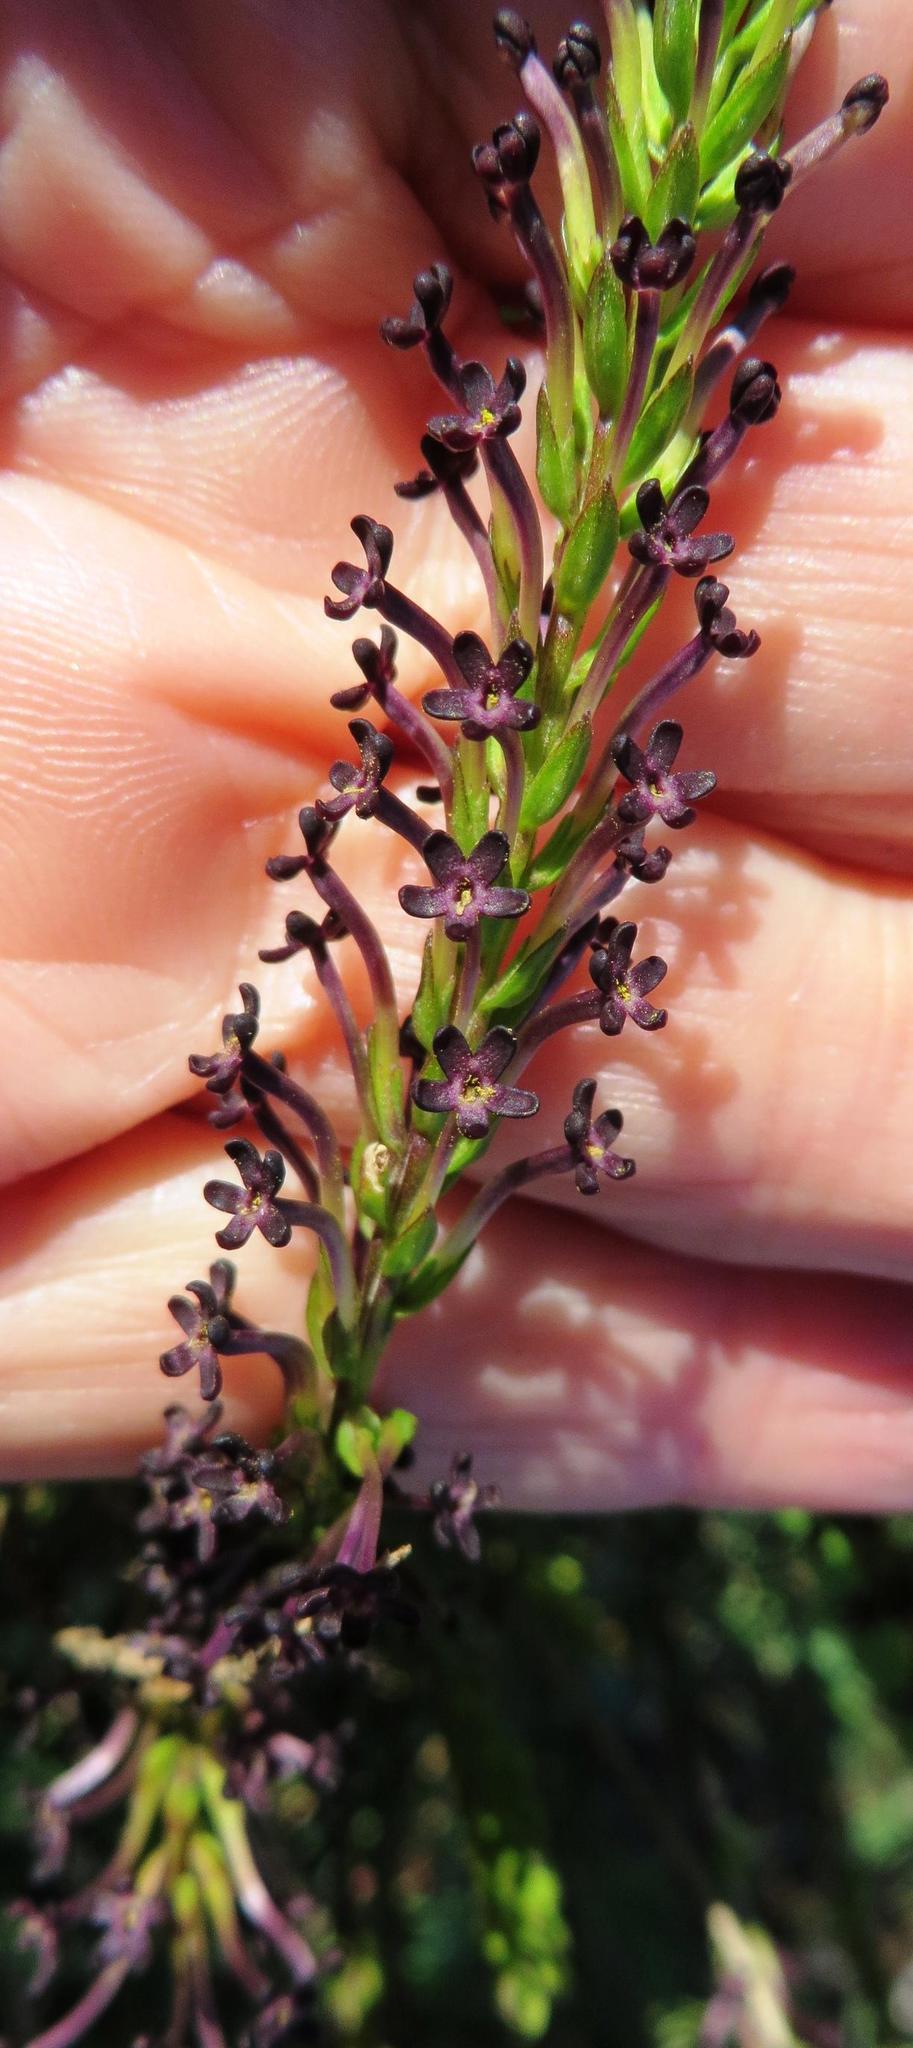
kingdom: Plantae
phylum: Tracheophyta
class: Magnoliopsida
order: Lamiales
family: Scrophulariaceae
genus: Microdon
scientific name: Microdon dubius
